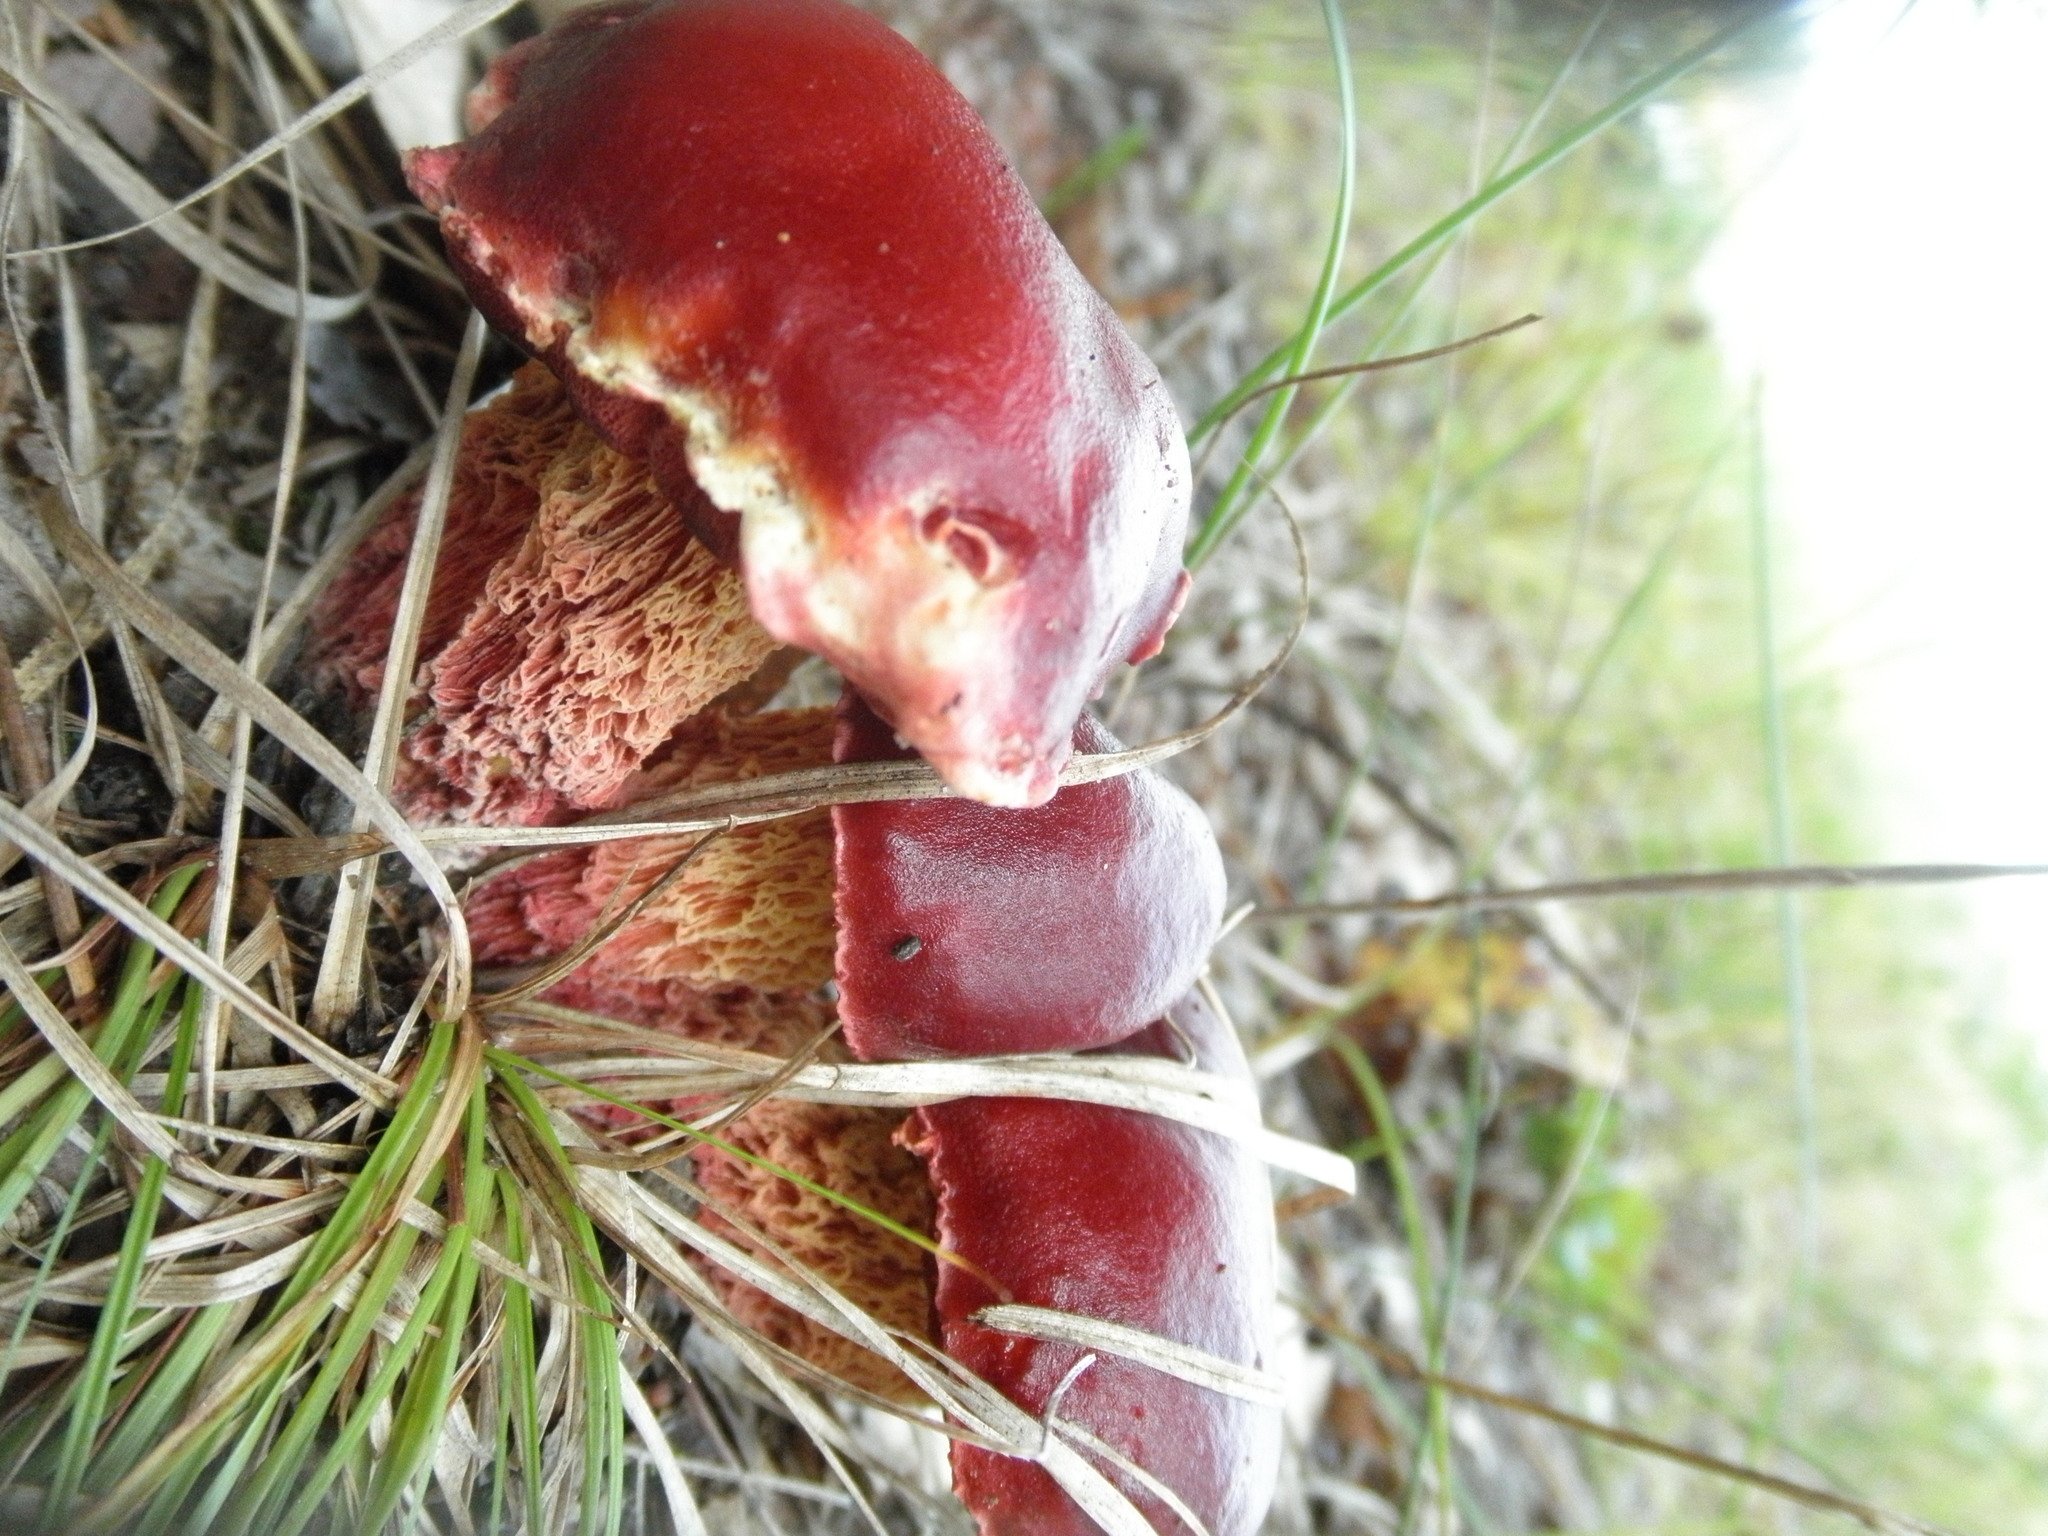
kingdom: Fungi
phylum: Basidiomycota
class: Agaricomycetes
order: Boletales
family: Boletaceae
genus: Butyriboletus
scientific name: Butyriboletus frostii
